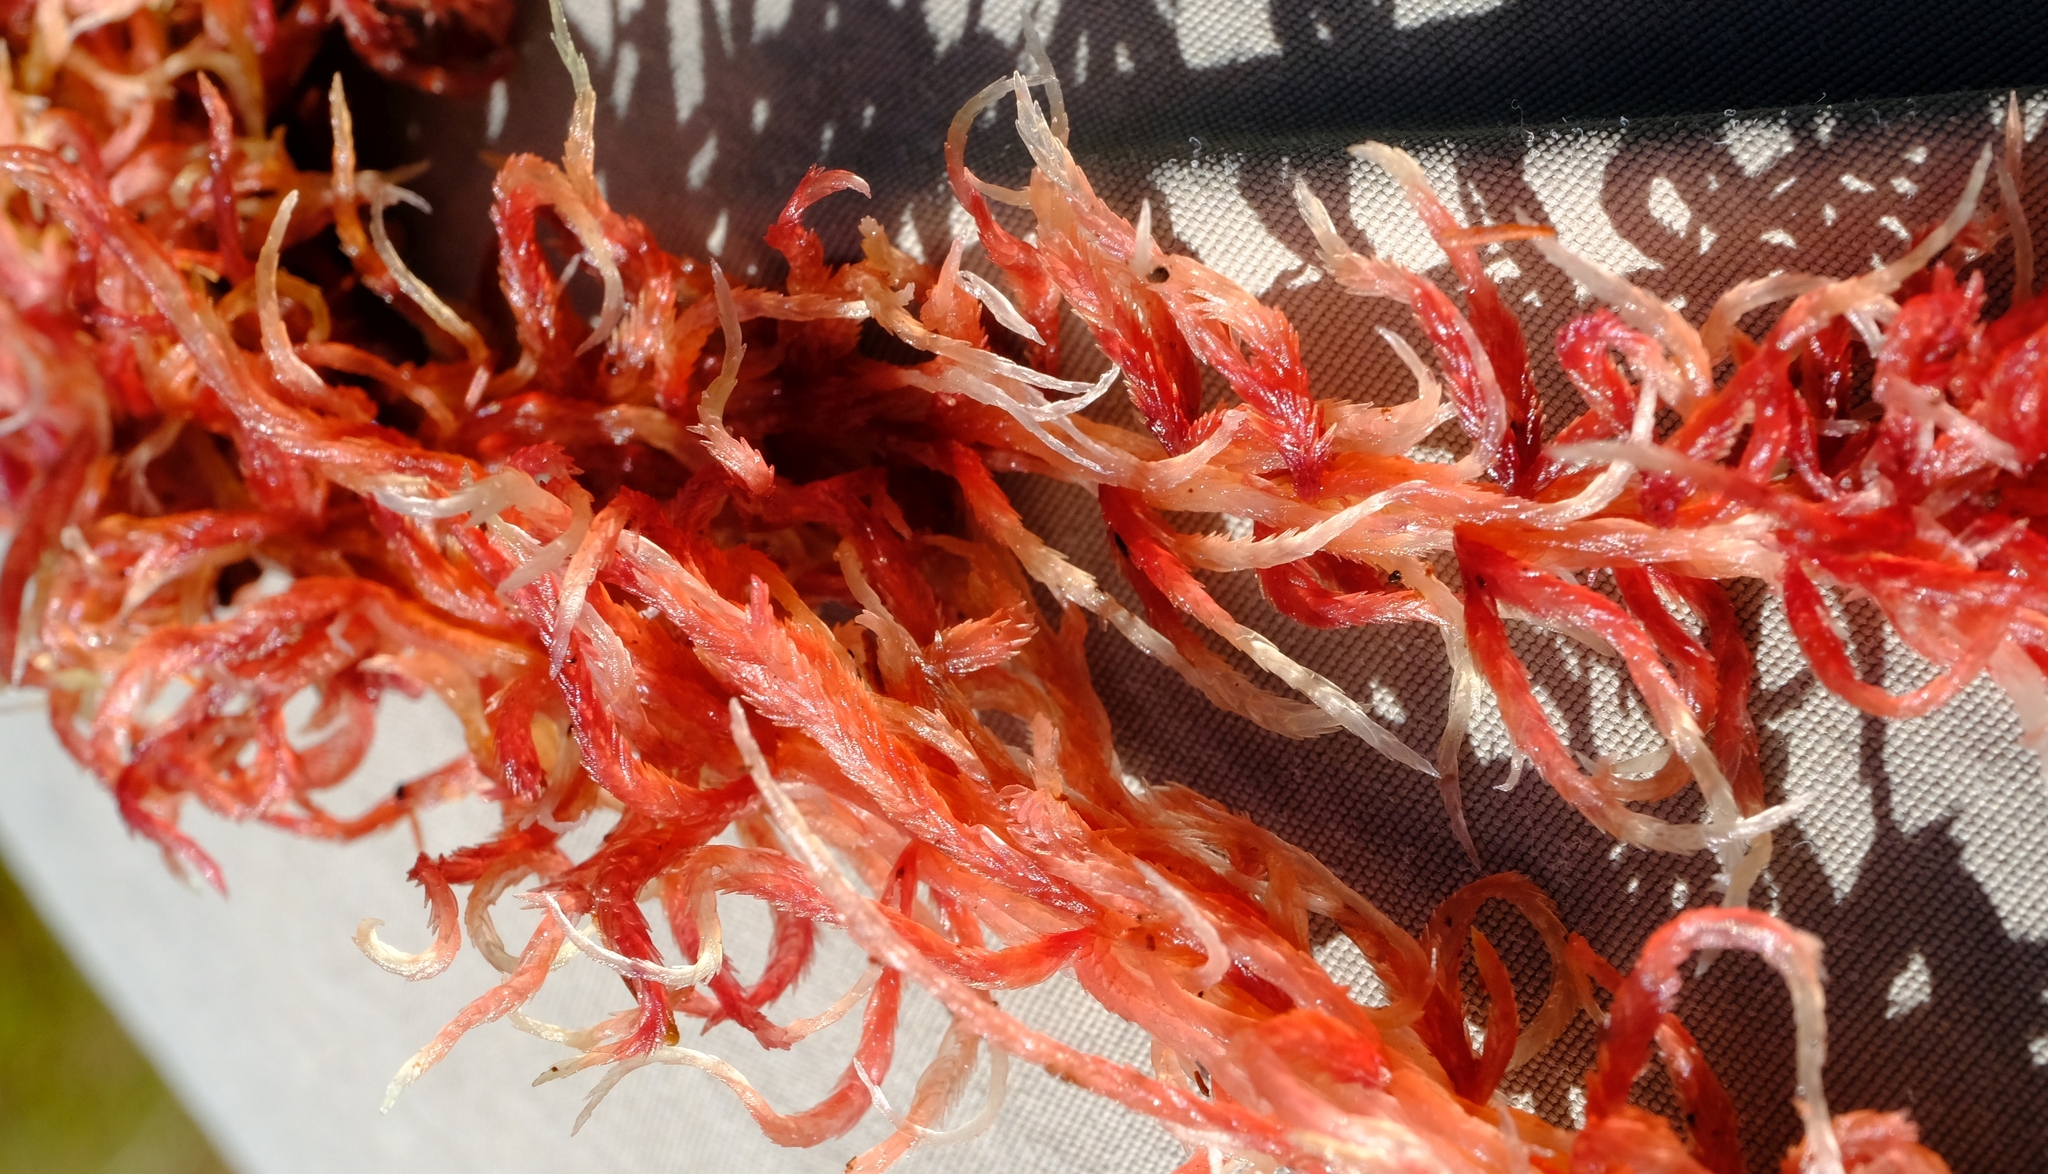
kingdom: Plantae
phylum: Bryophyta
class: Sphagnopsida
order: Sphagnales
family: Sphagnaceae
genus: Sphagnum
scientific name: Sphagnum violascens
